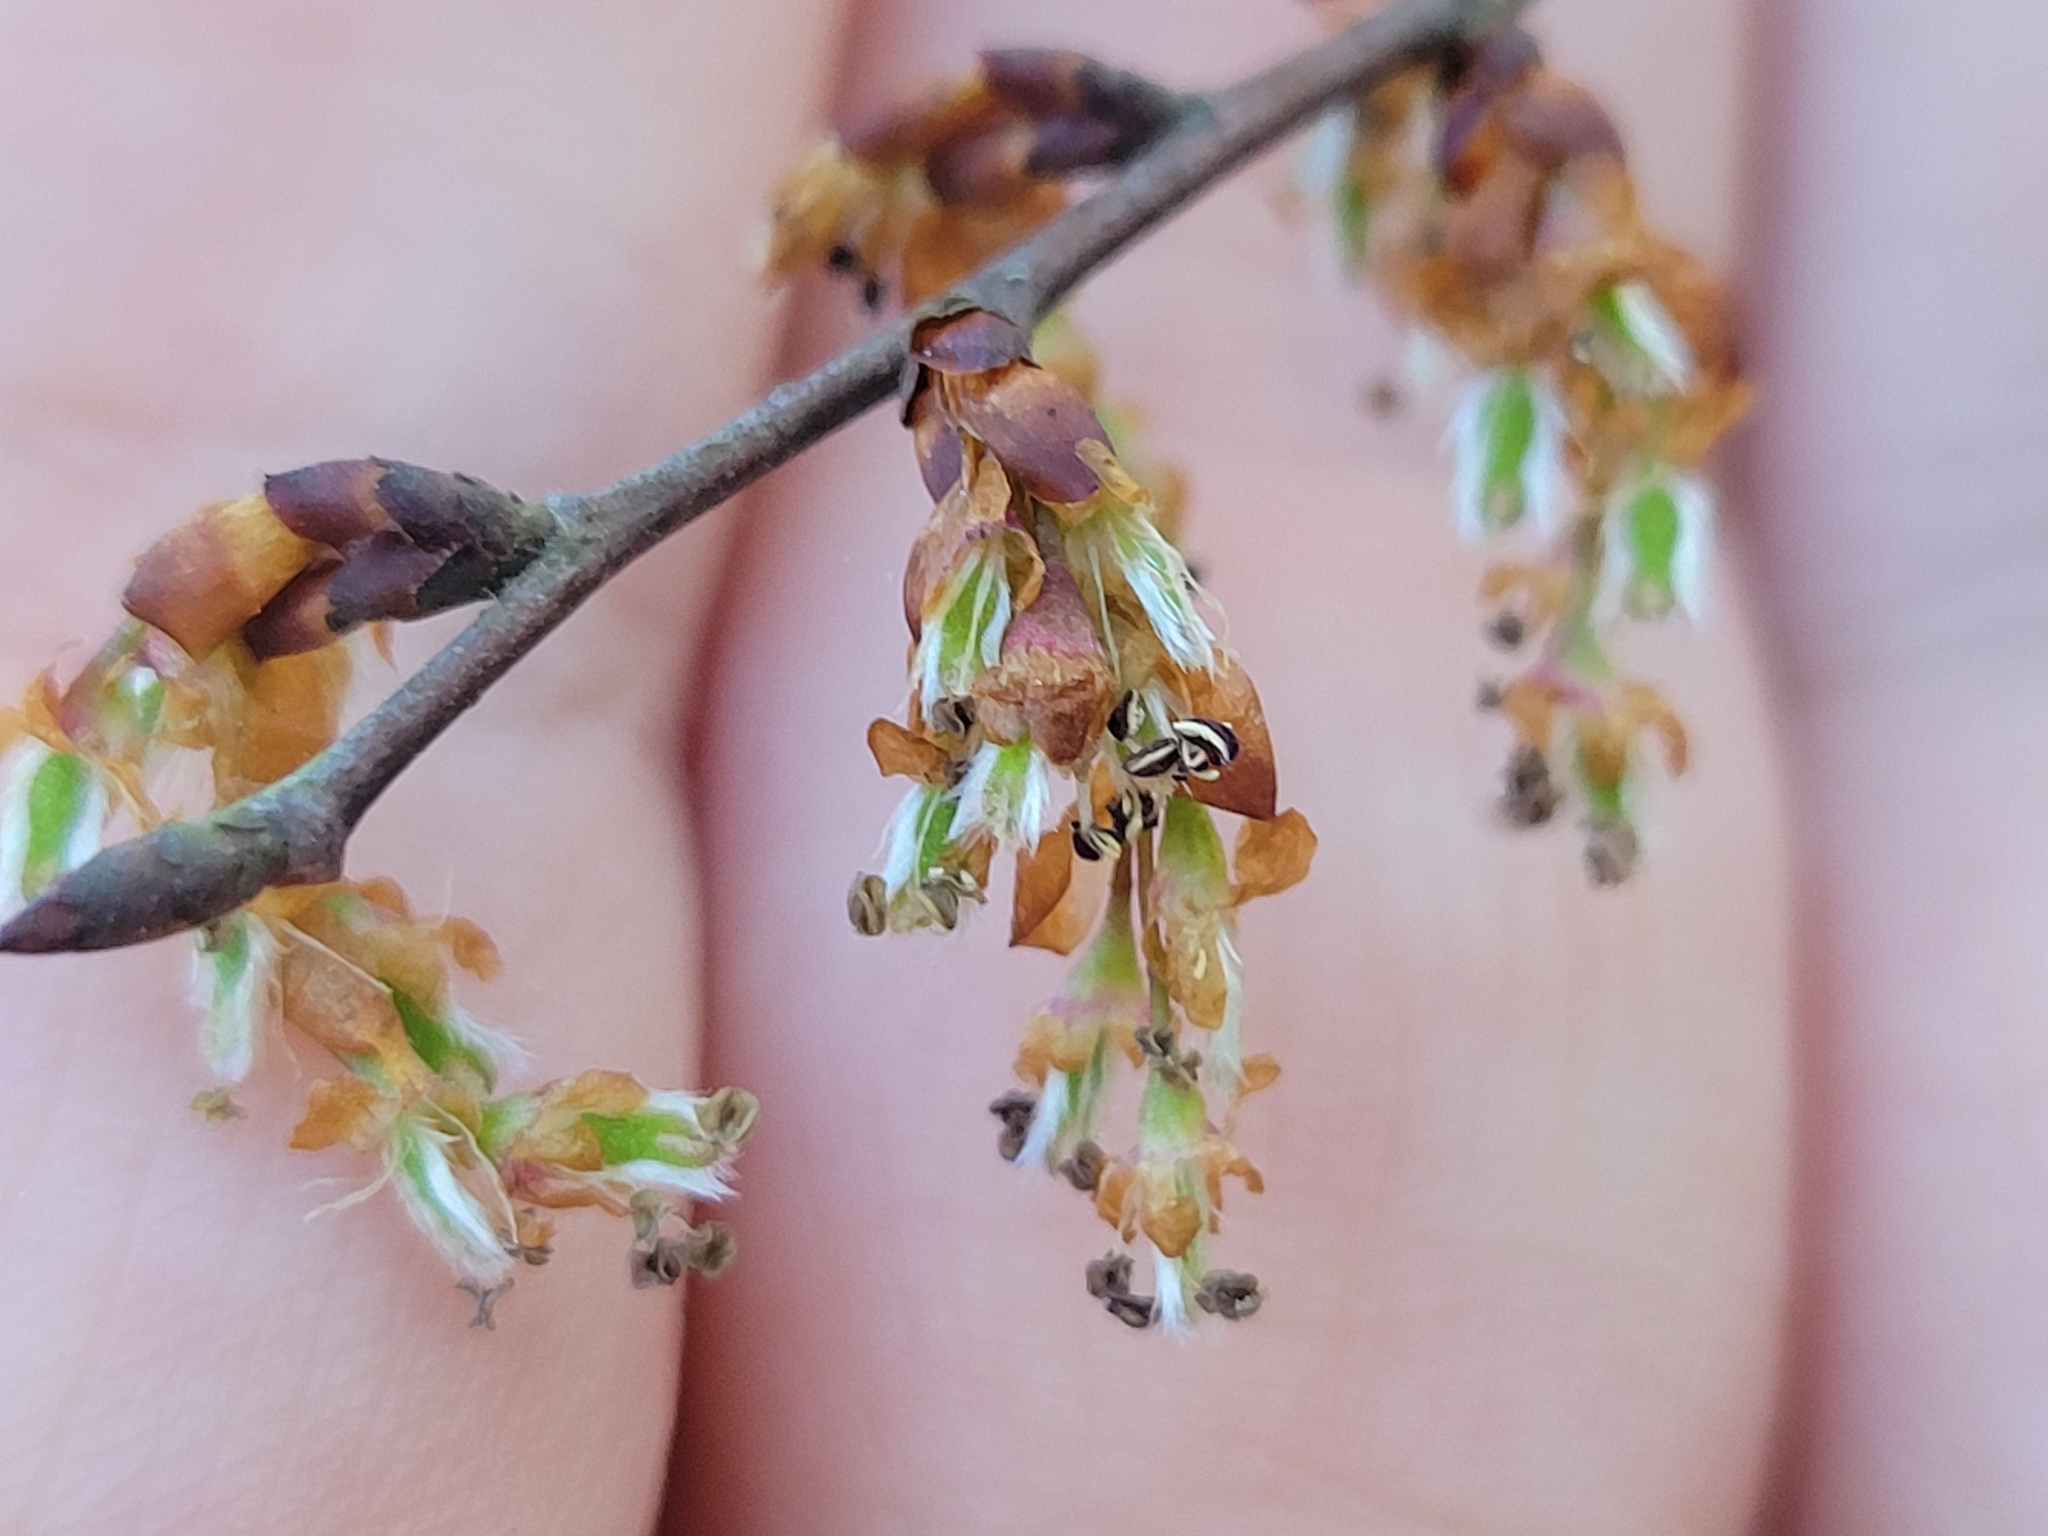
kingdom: Plantae
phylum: Tracheophyta
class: Magnoliopsida
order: Rosales
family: Ulmaceae
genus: Ulmus
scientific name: Ulmus alata
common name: Winged elm
